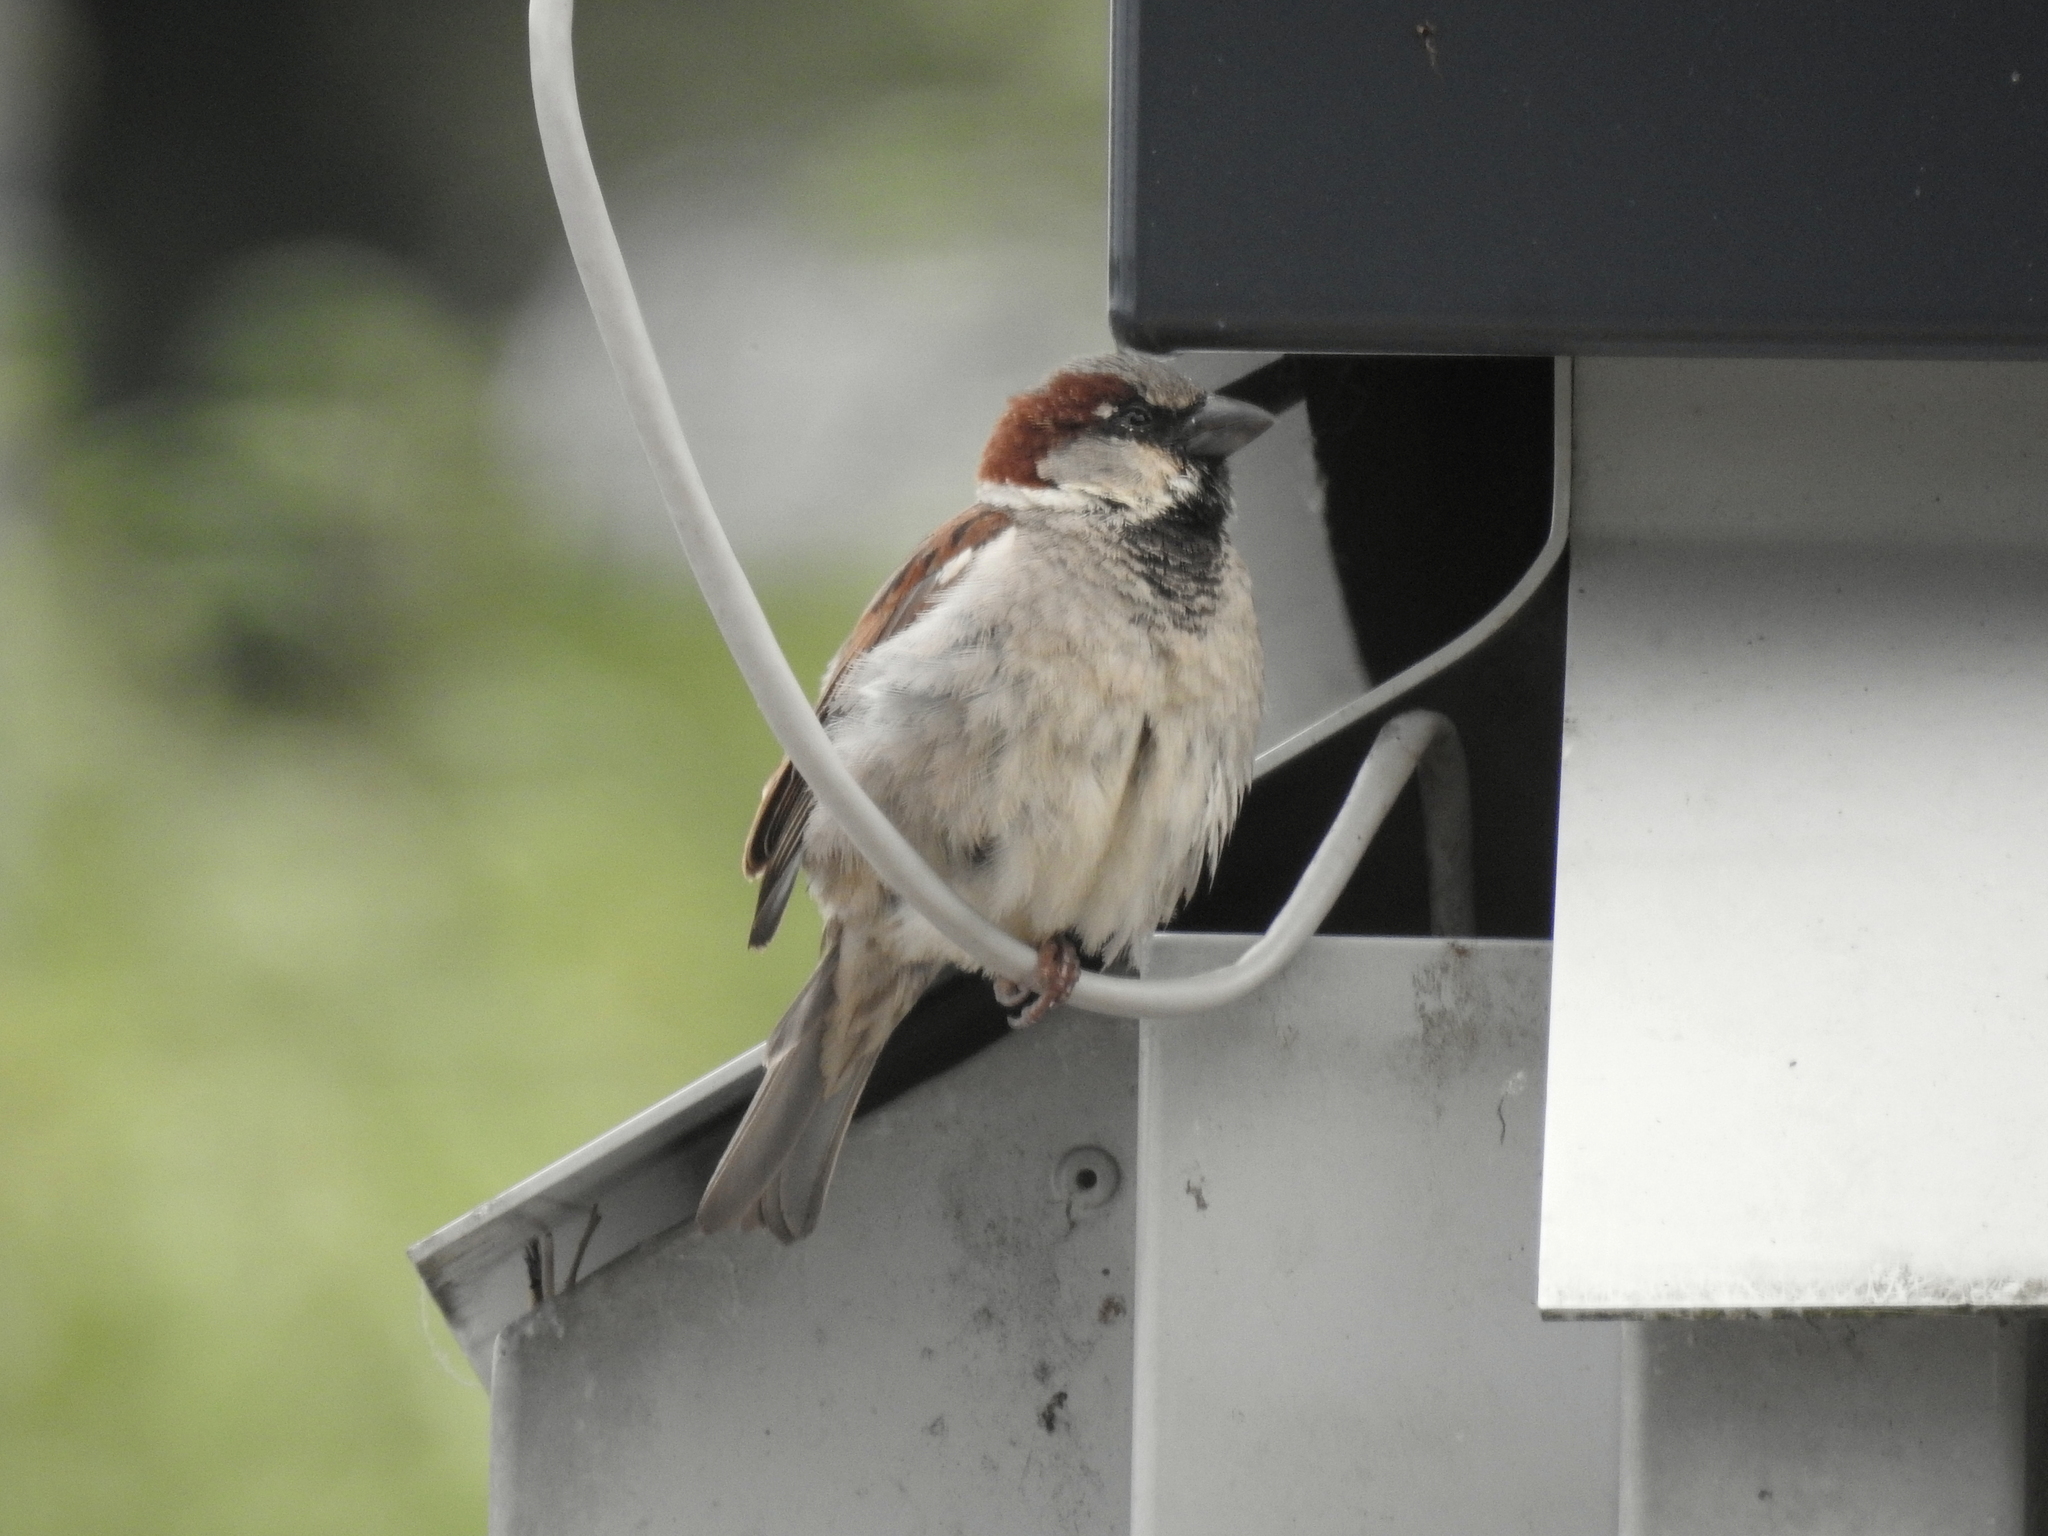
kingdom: Animalia
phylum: Chordata
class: Aves
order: Passeriformes
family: Passeridae
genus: Passer
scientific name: Passer domesticus
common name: House sparrow
